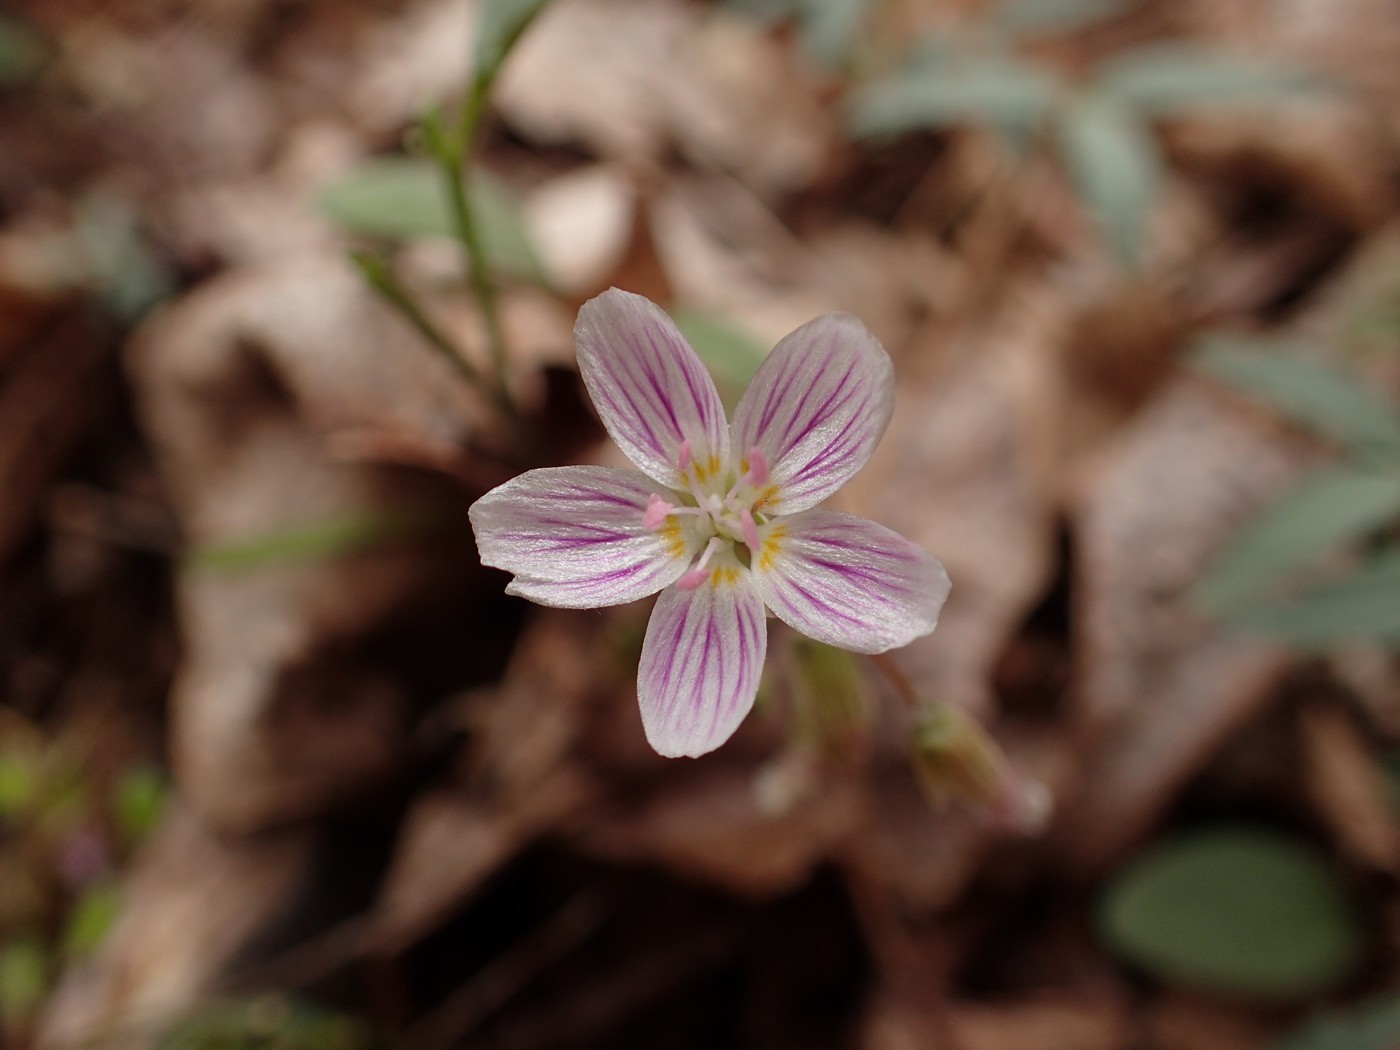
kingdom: Plantae
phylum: Tracheophyta
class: Magnoliopsida
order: Caryophyllales
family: Montiaceae
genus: Claytonia
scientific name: Claytonia caroliniana
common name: Carolina spring beauty
